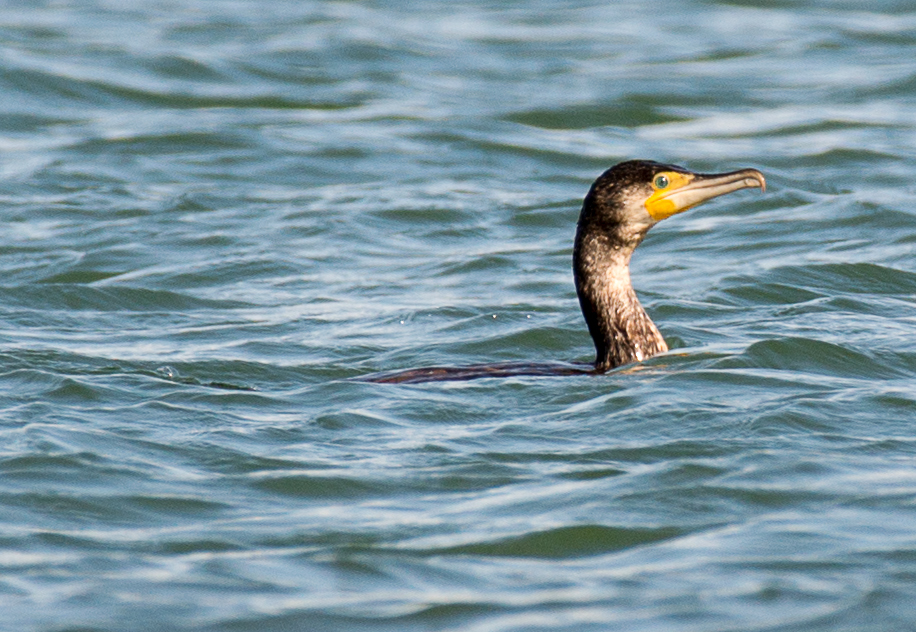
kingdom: Animalia
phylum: Chordata
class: Aves
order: Suliformes
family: Phalacrocoracidae
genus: Phalacrocorax
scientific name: Phalacrocorax carbo
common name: Great cormorant
